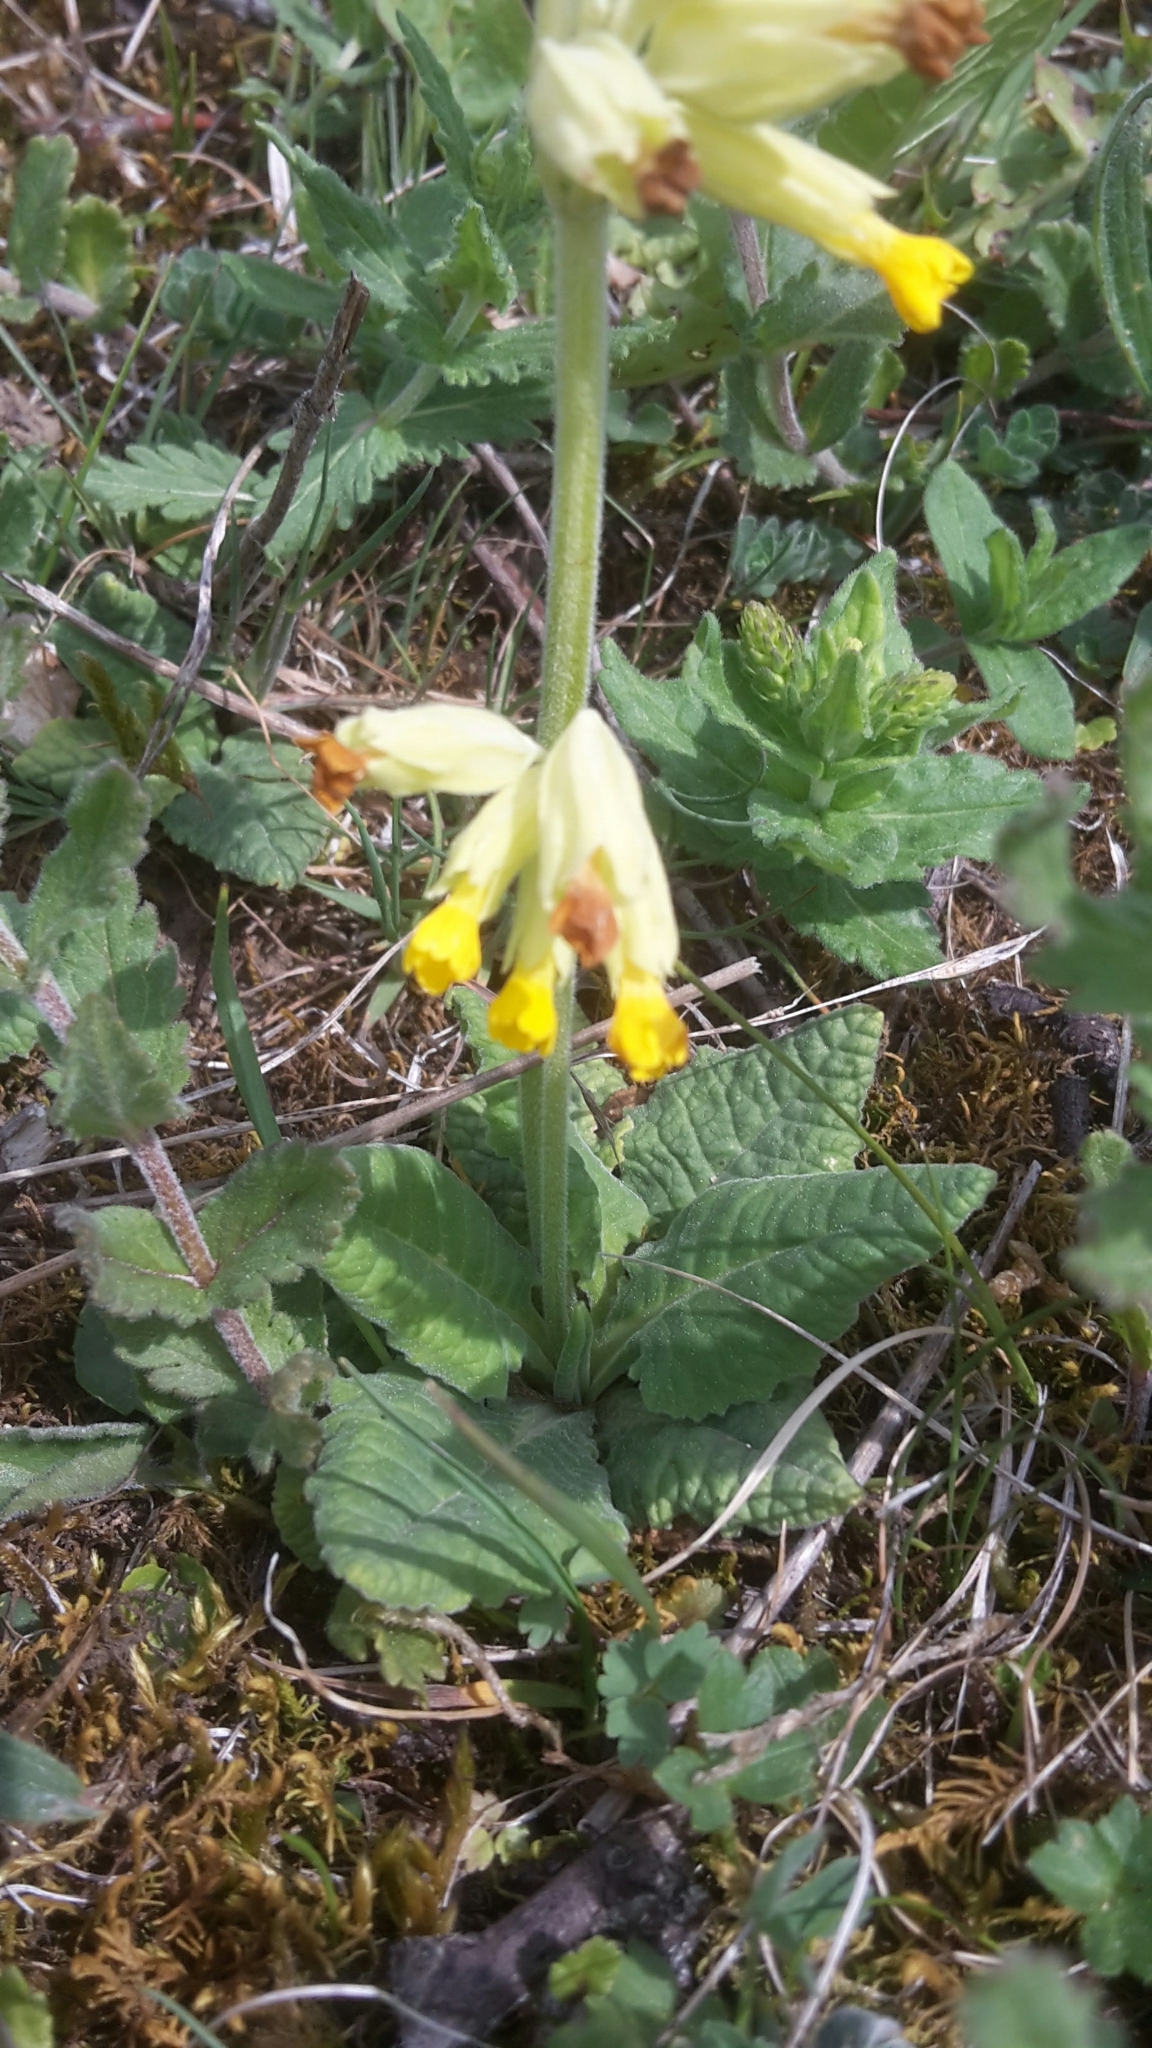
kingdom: Plantae
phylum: Tracheophyta
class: Magnoliopsida
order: Ericales
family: Primulaceae
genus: Primula
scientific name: Primula veris
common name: Cowslip
